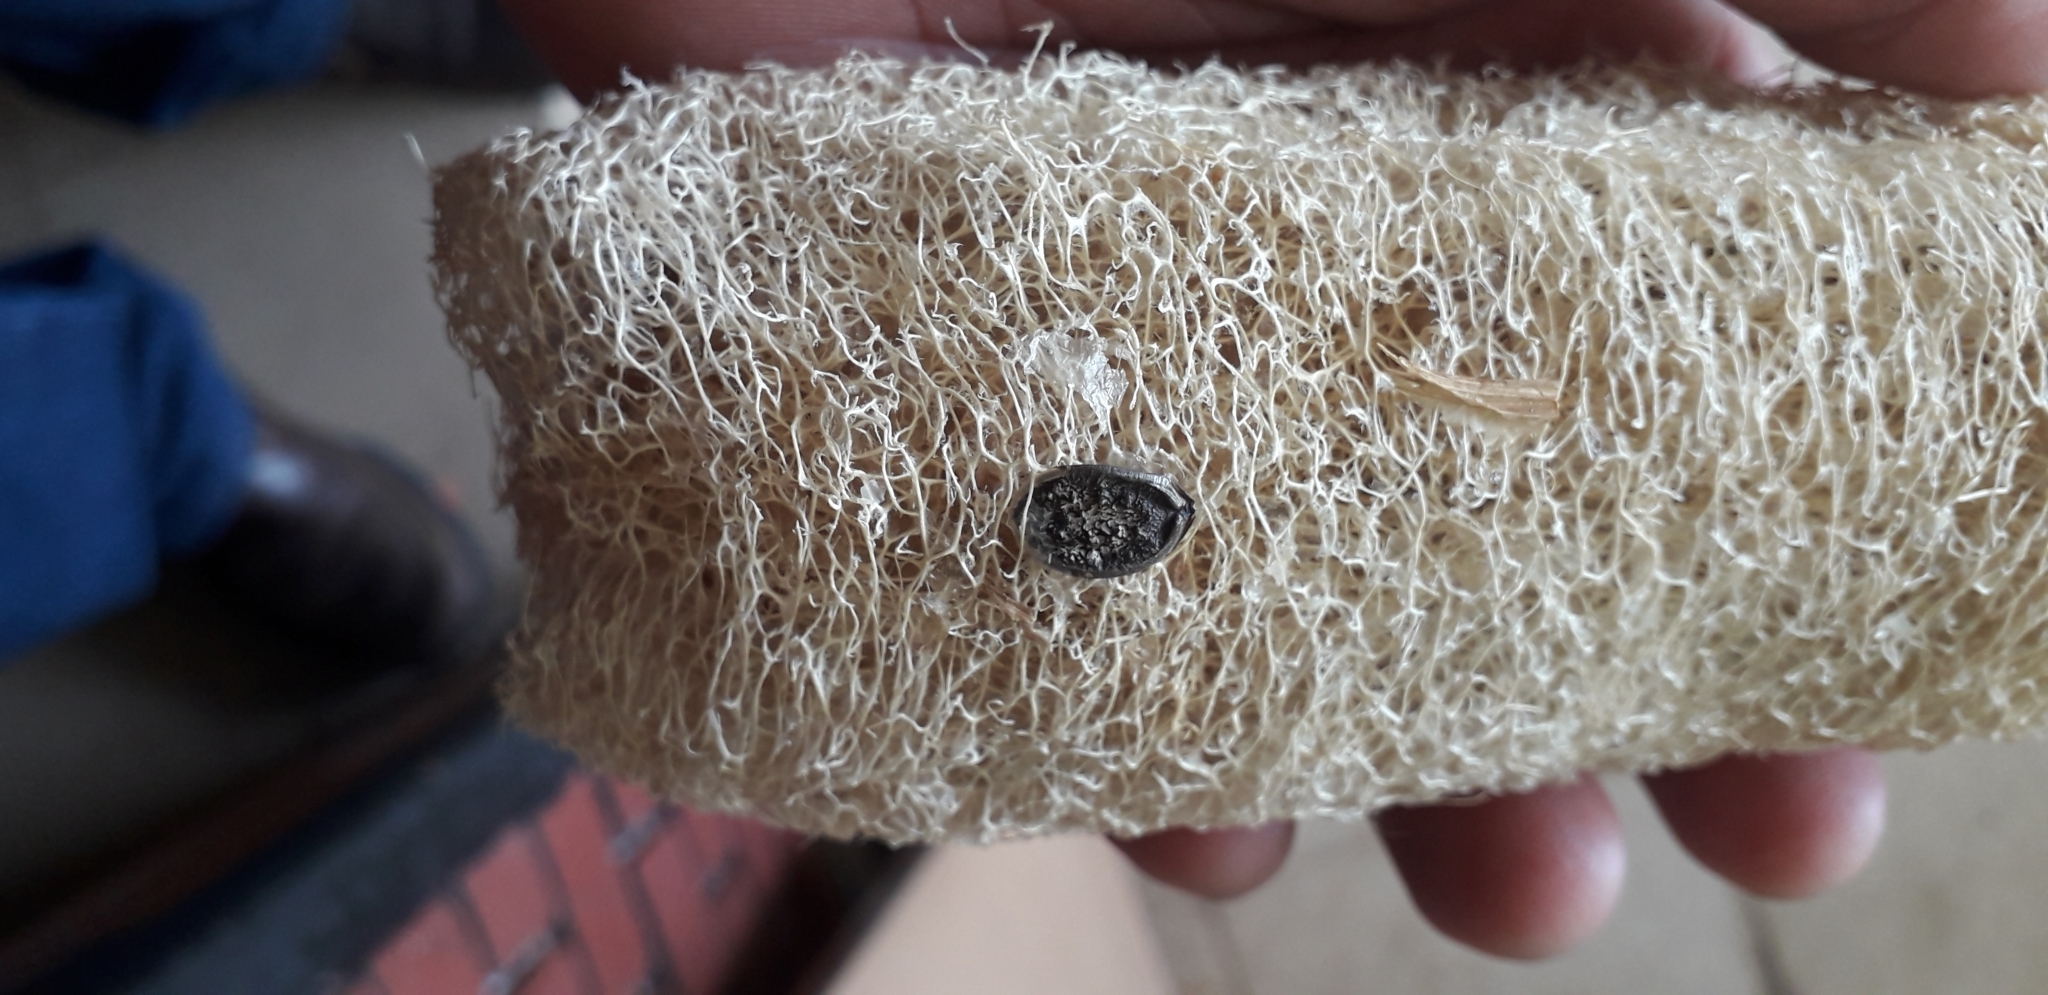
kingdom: Plantae
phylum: Tracheophyta
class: Magnoliopsida
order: Cucurbitales
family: Cucurbitaceae
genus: Luffa
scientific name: Luffa aegyptiaca
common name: Sponge gourd
